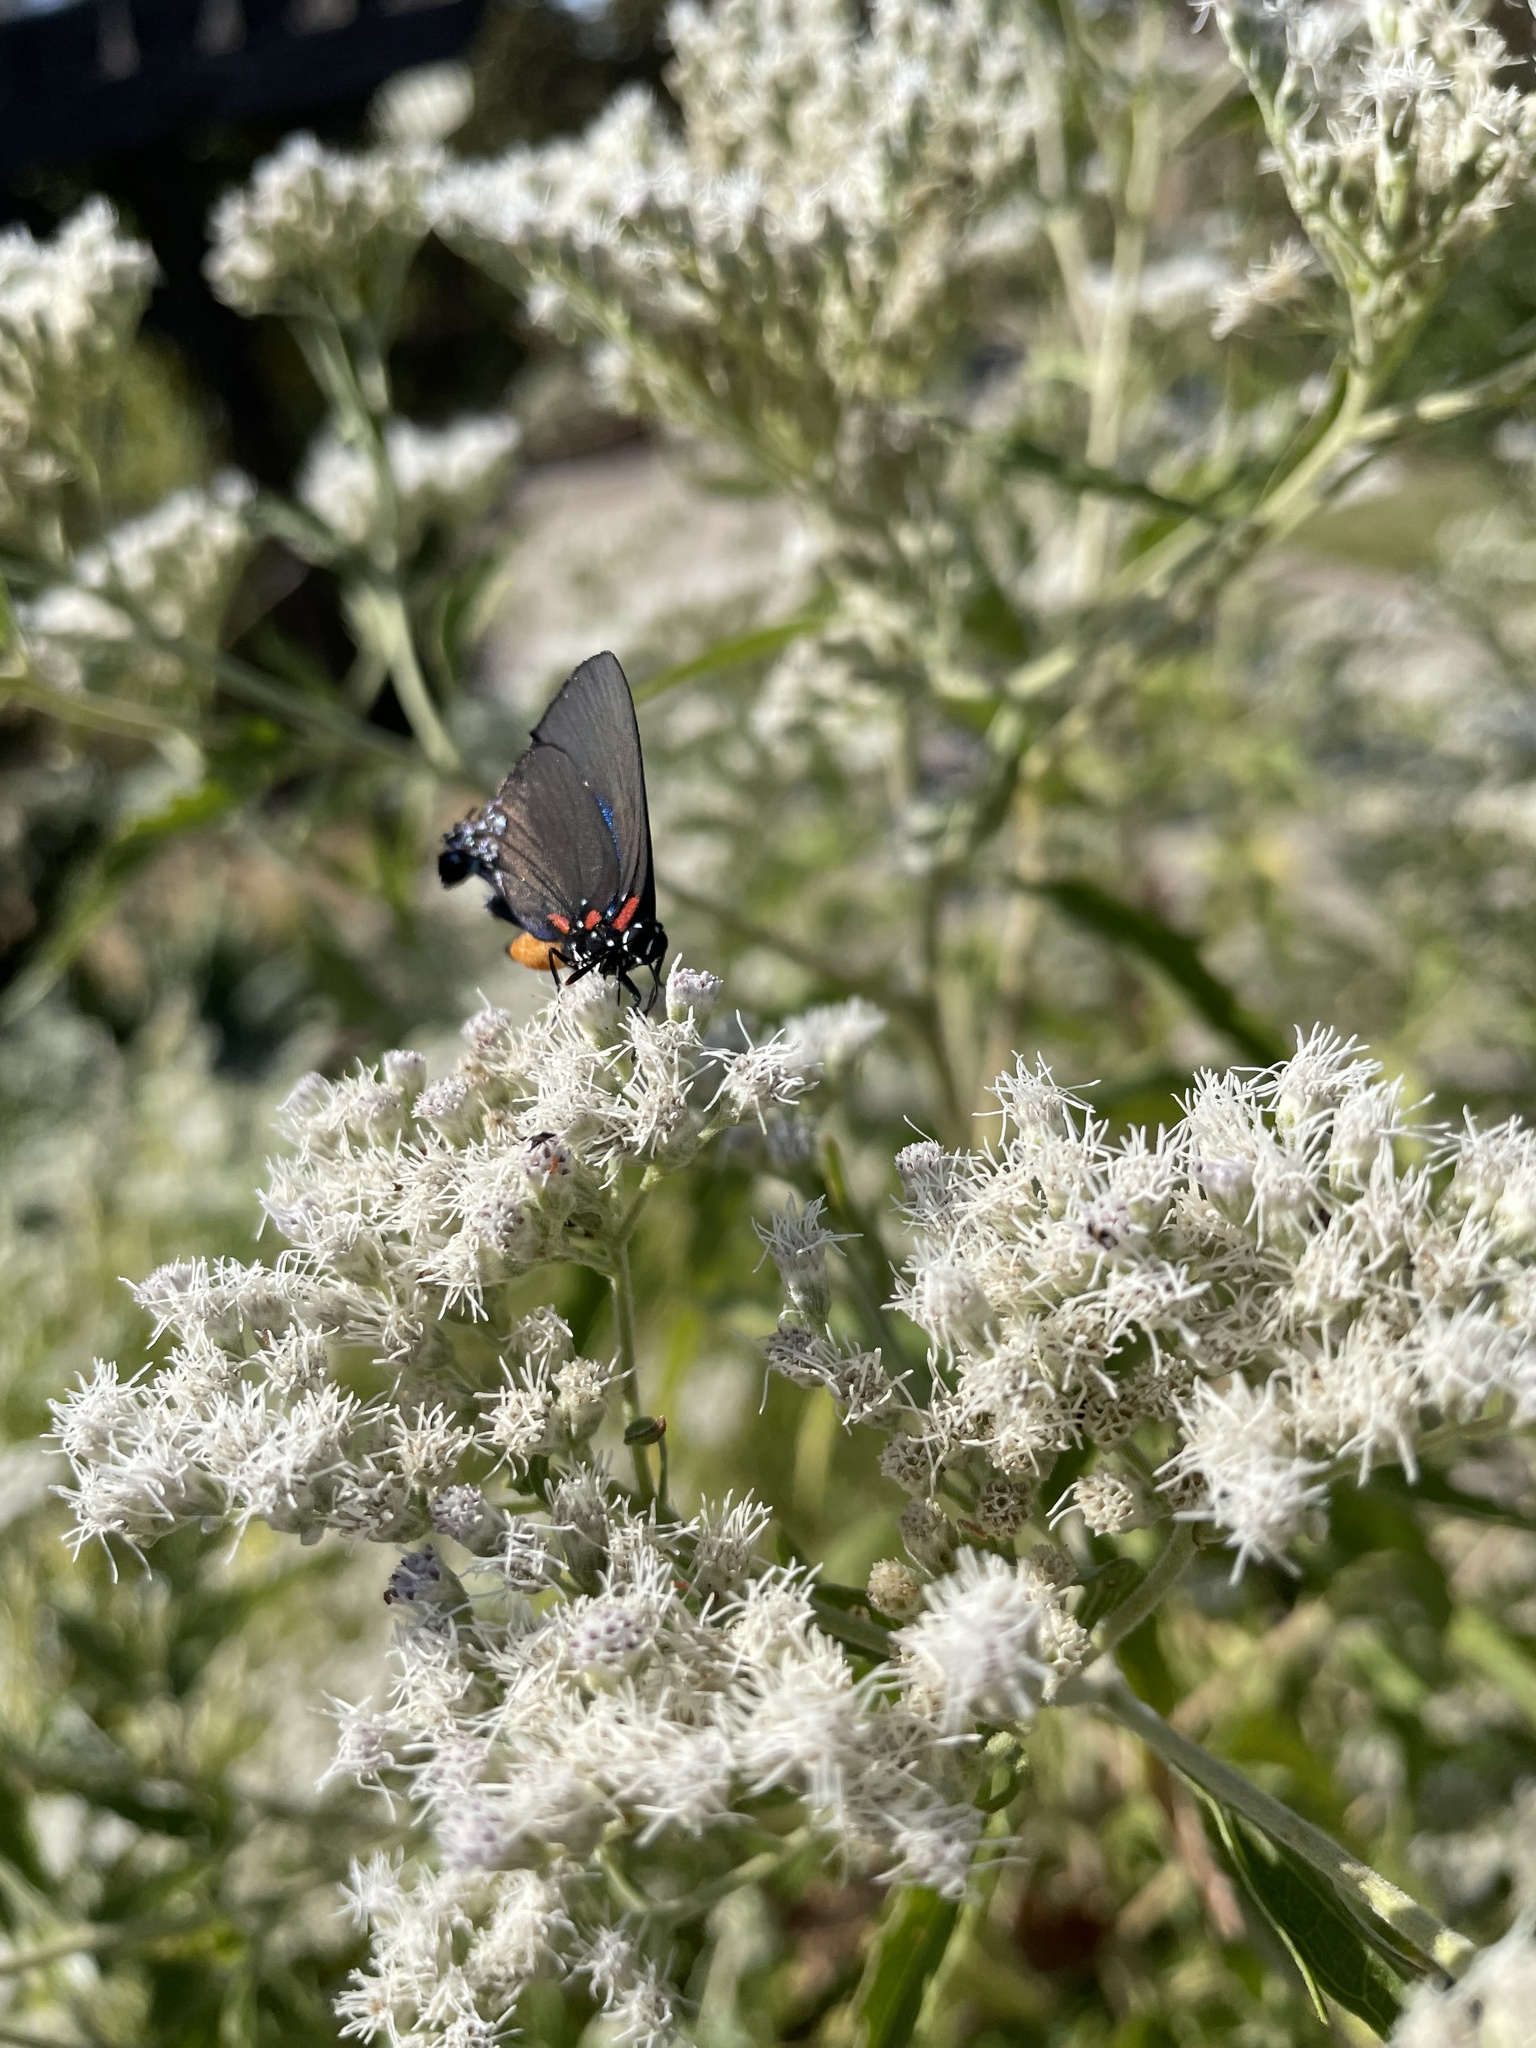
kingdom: Animalia
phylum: Arthropoda
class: Insecta
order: Lepidoptera
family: Lycaenidae
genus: Atlides
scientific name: Atlides halesus
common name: Great purple hairstreak
